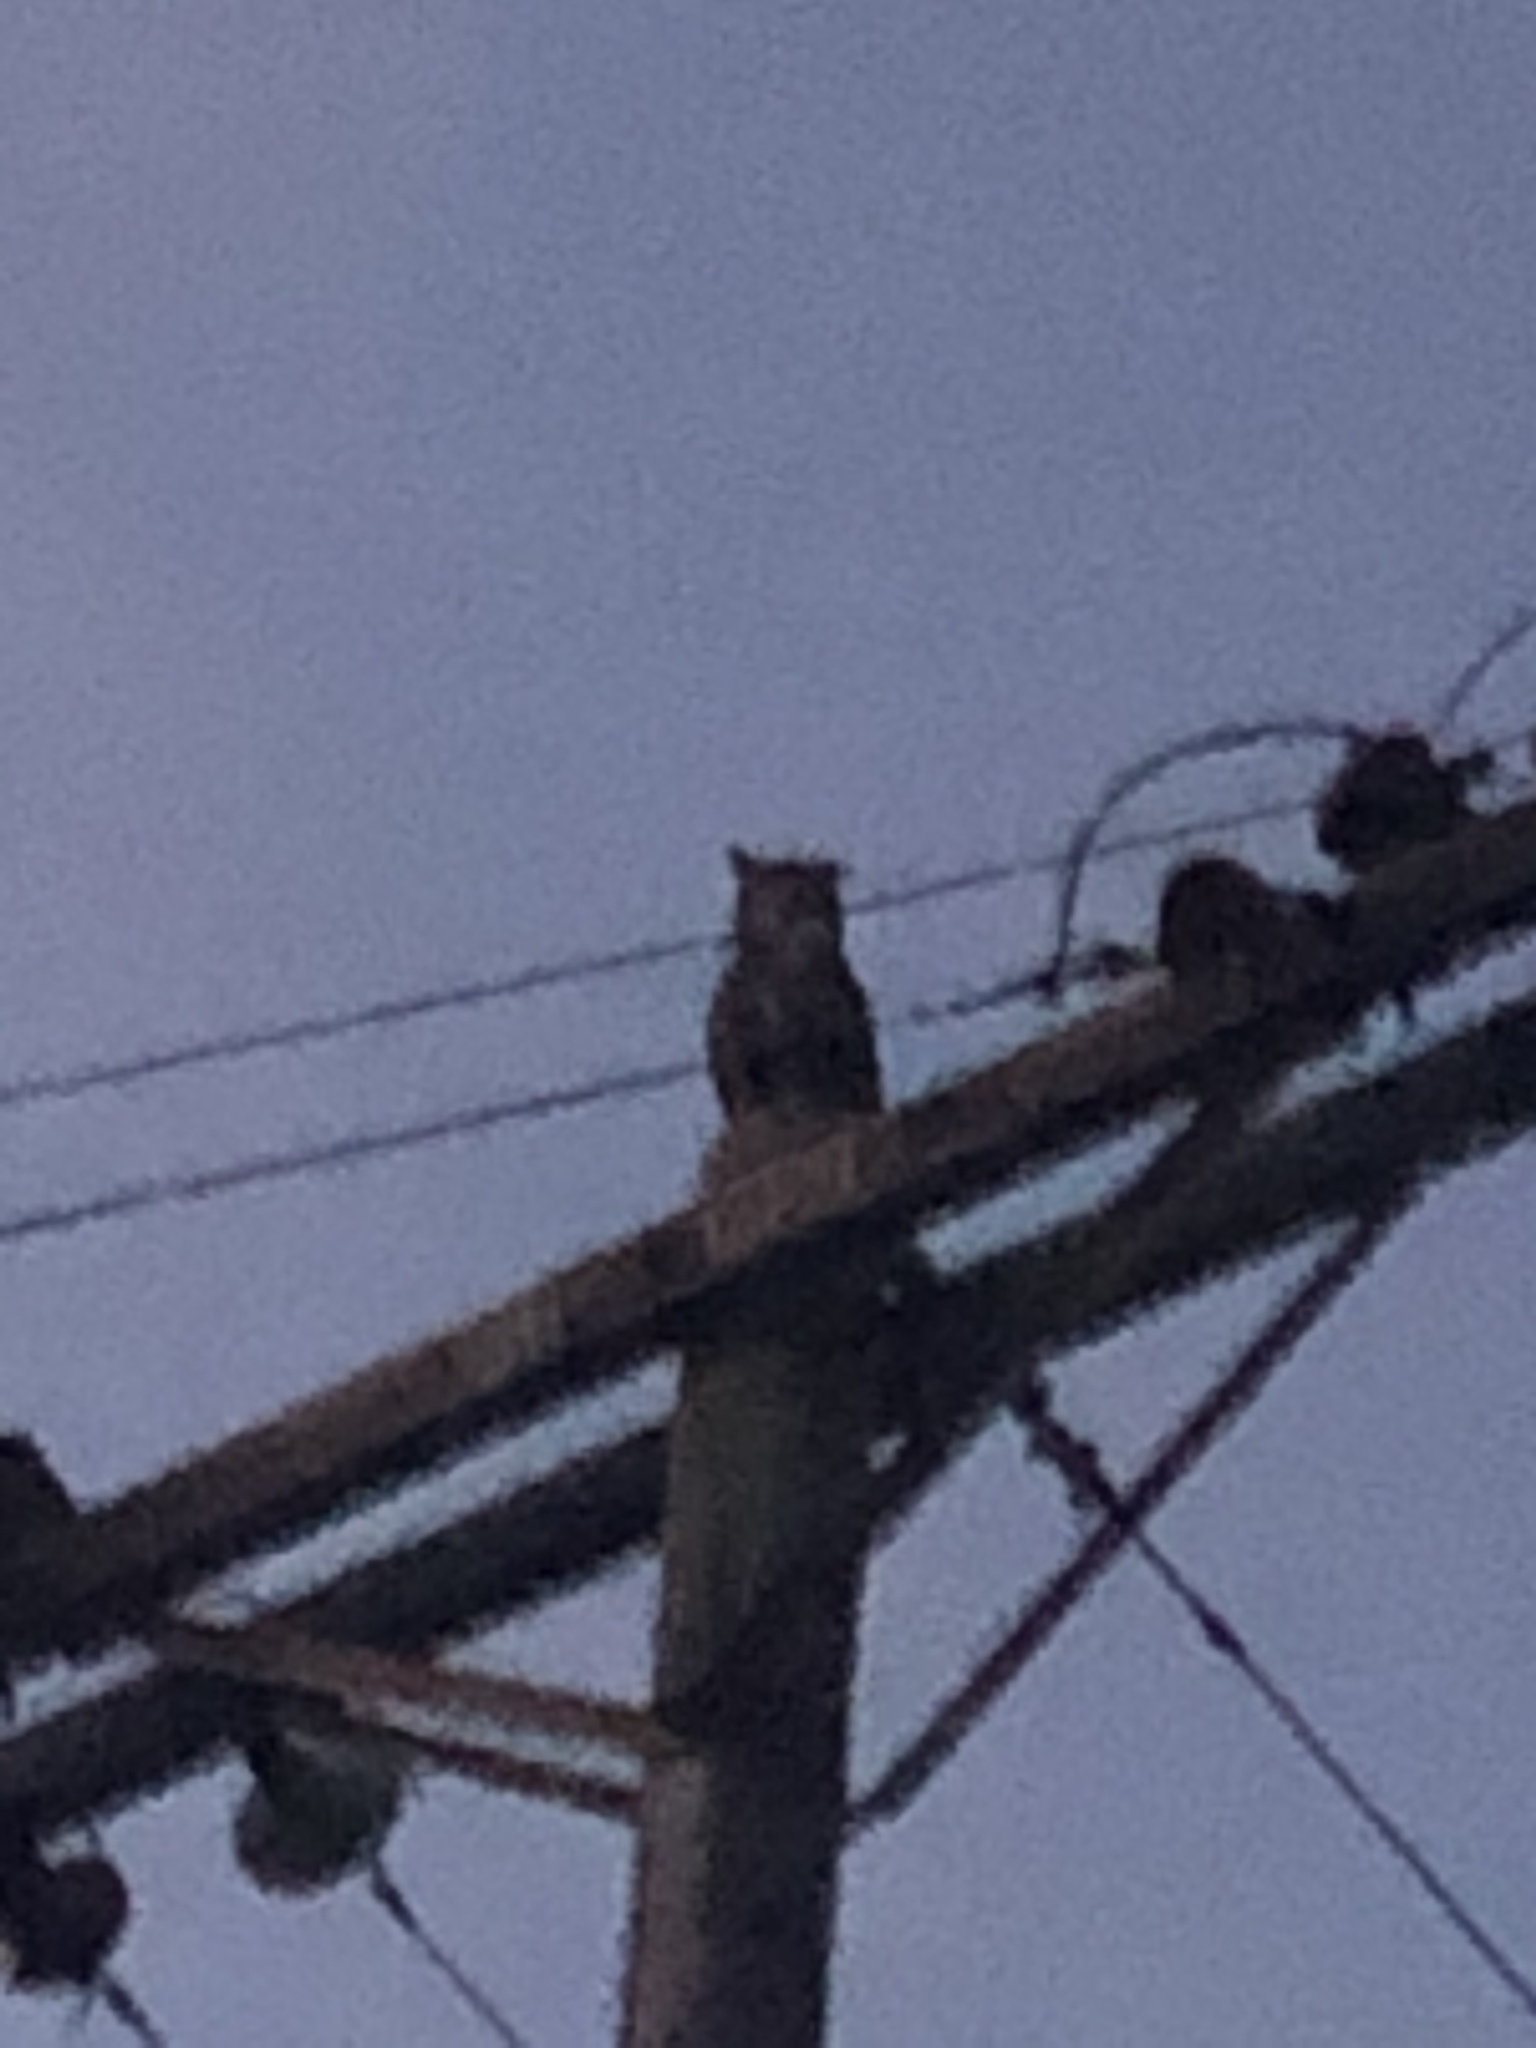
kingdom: Animalia
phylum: Chordata
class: Aves
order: Strigiformes
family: Strigidae
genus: Bubo
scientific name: Bubo virginianus
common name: Great horned owl
